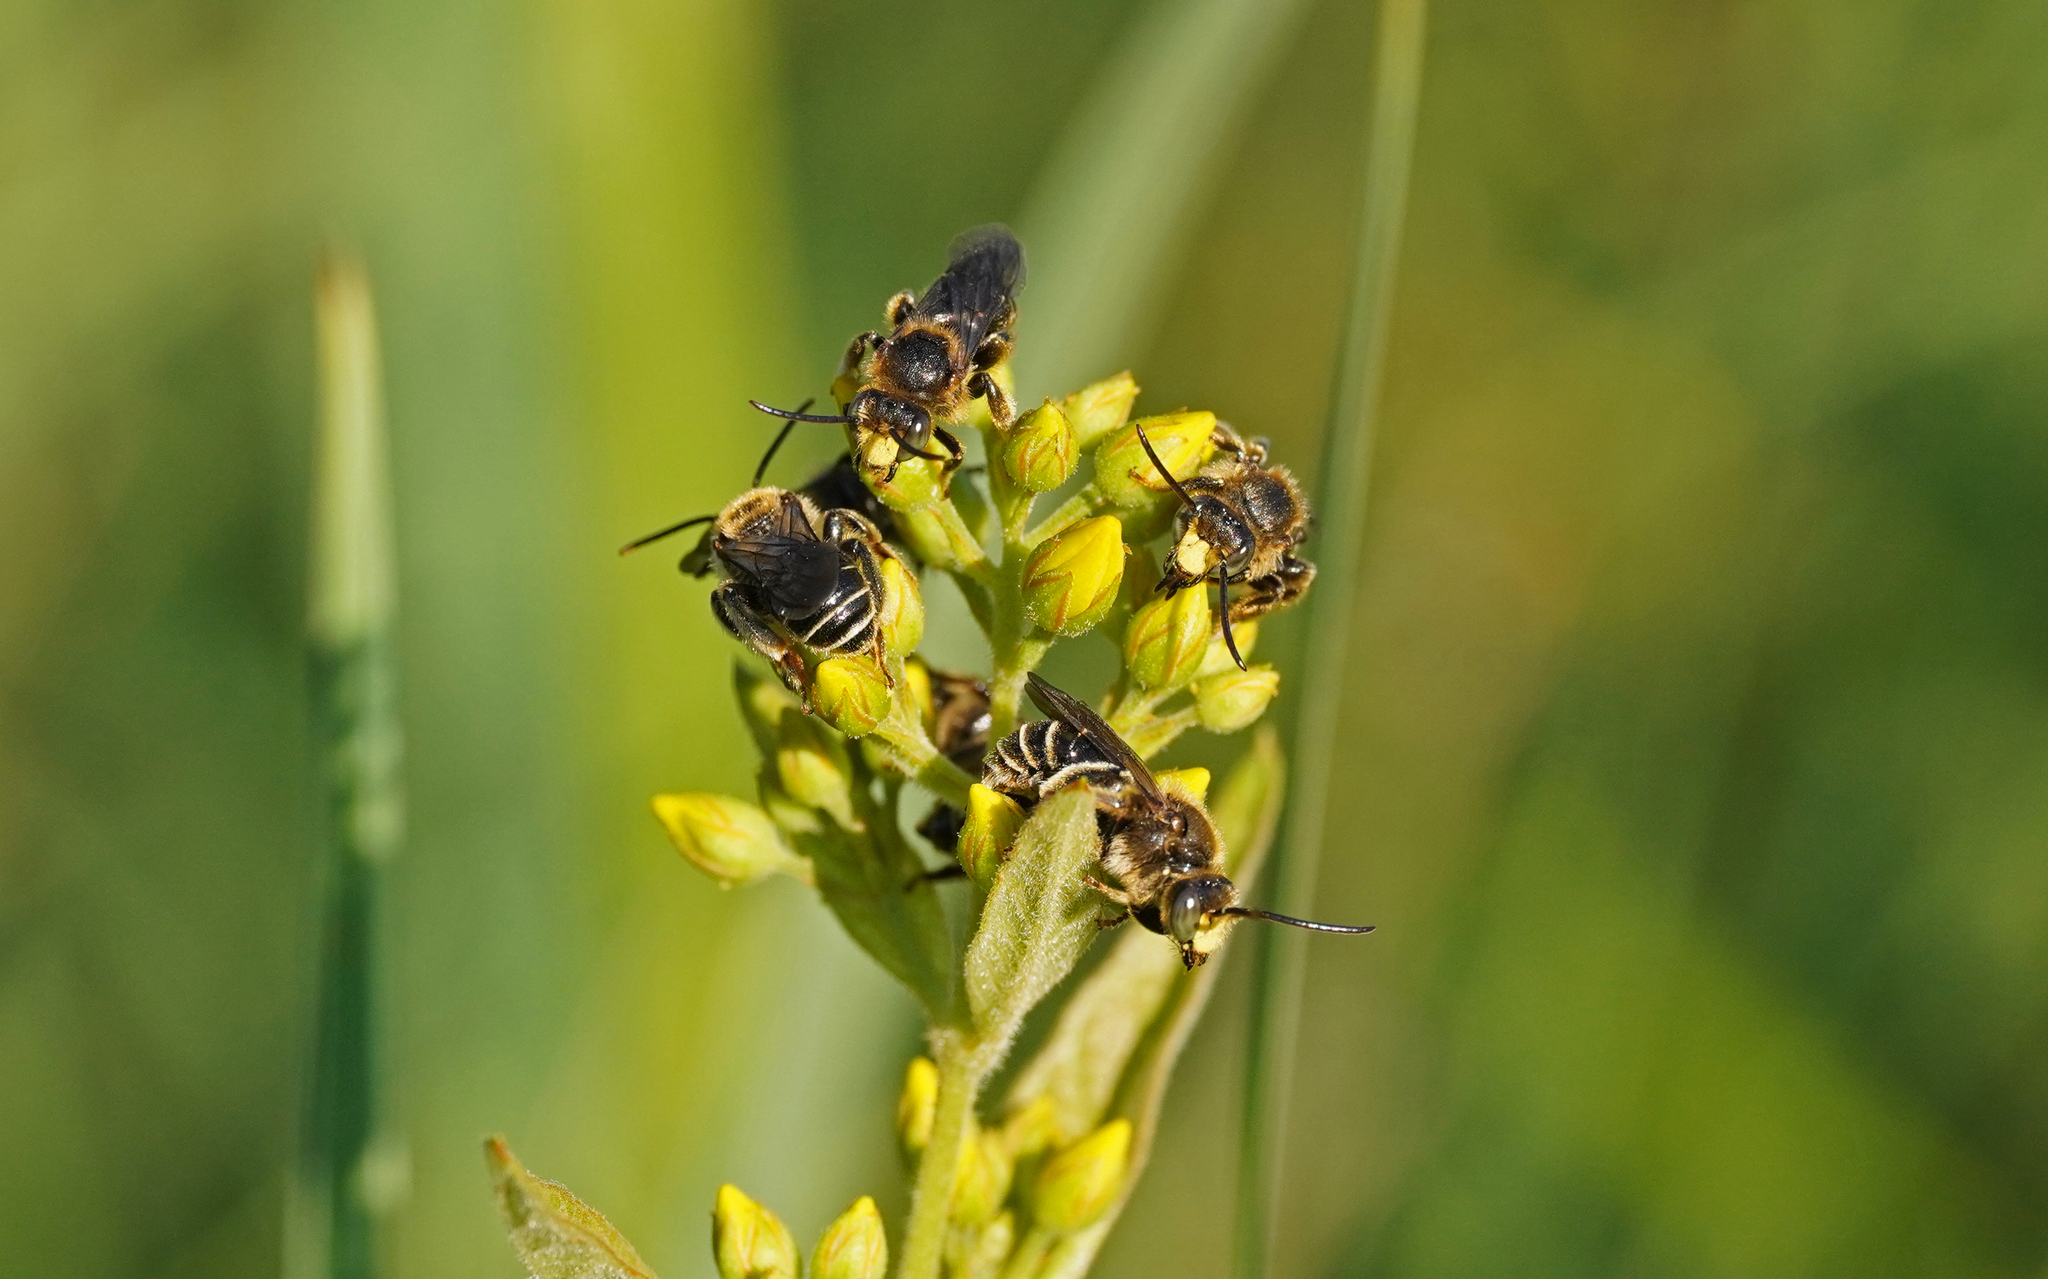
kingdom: Animalia
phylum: Arthropoda
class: Insecta
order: Hymenoptera
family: Melittidae
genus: Macropis
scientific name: Macropis europaea
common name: Yellow loosestrife bee
